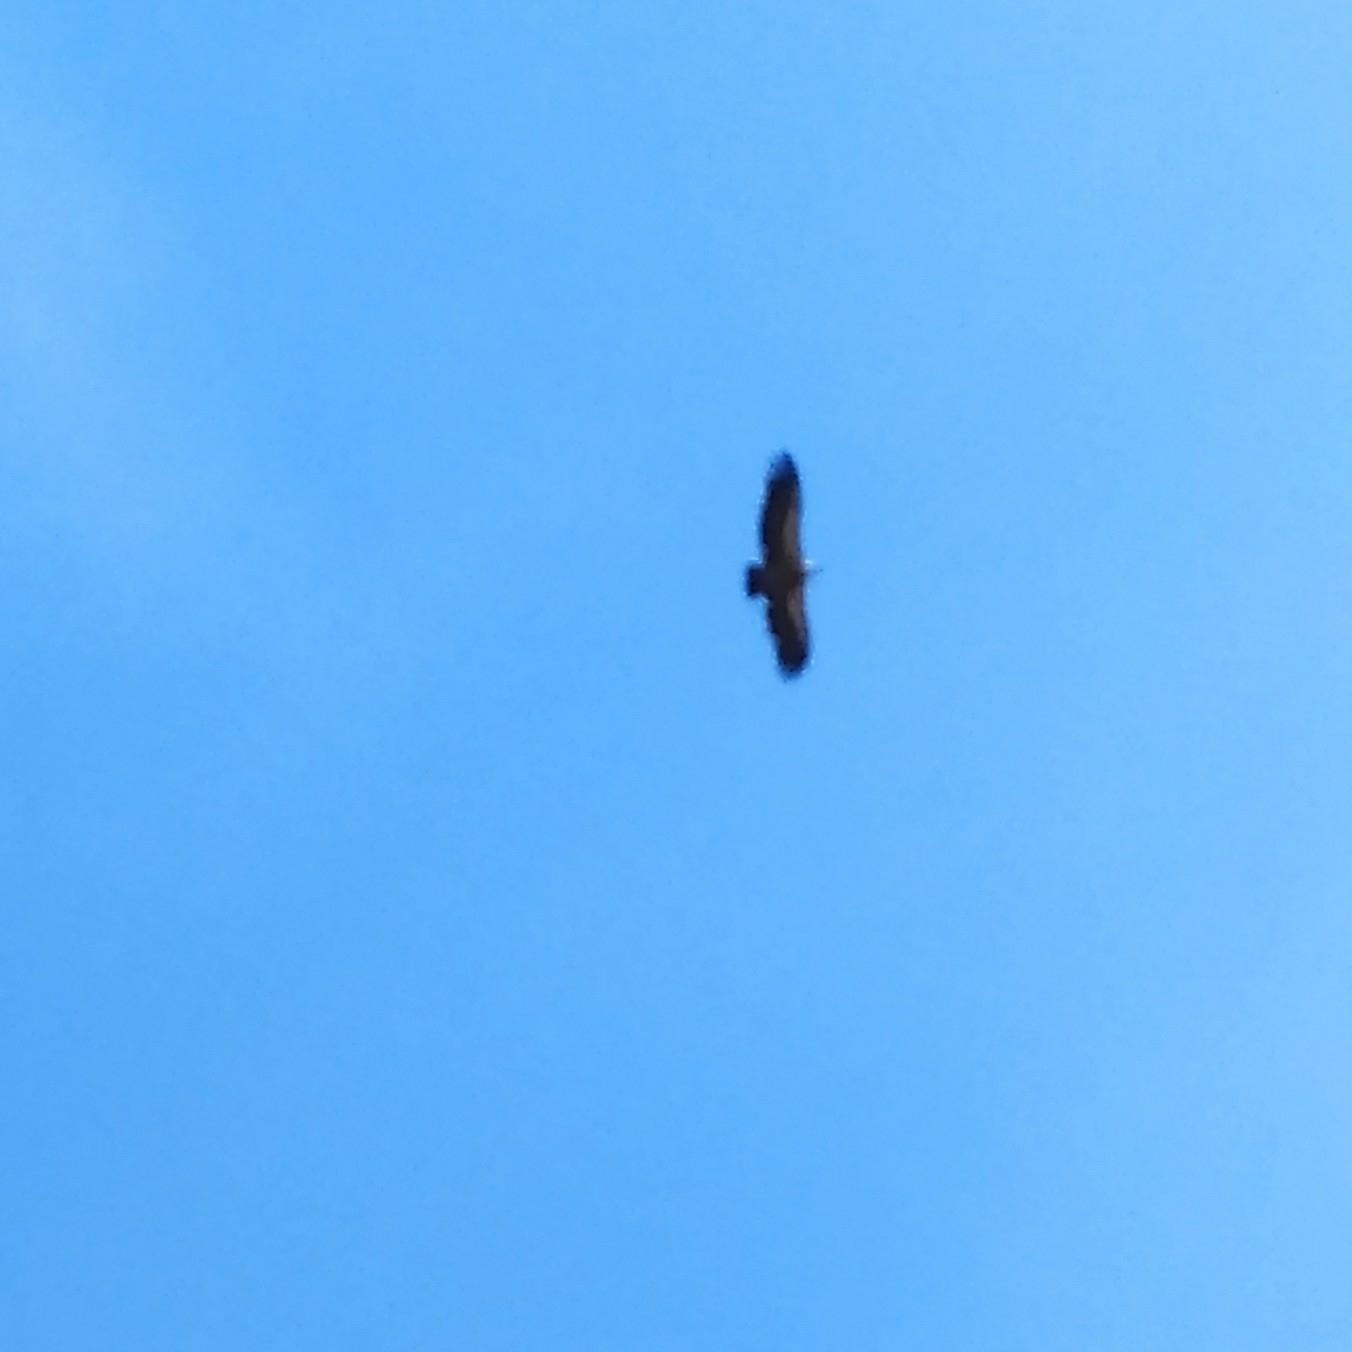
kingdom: Animalia
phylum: Chordata
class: Aves
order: Accipitriformes
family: Accipitridae
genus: Gyps
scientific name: Gyps fulvus
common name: Griffon vulture
